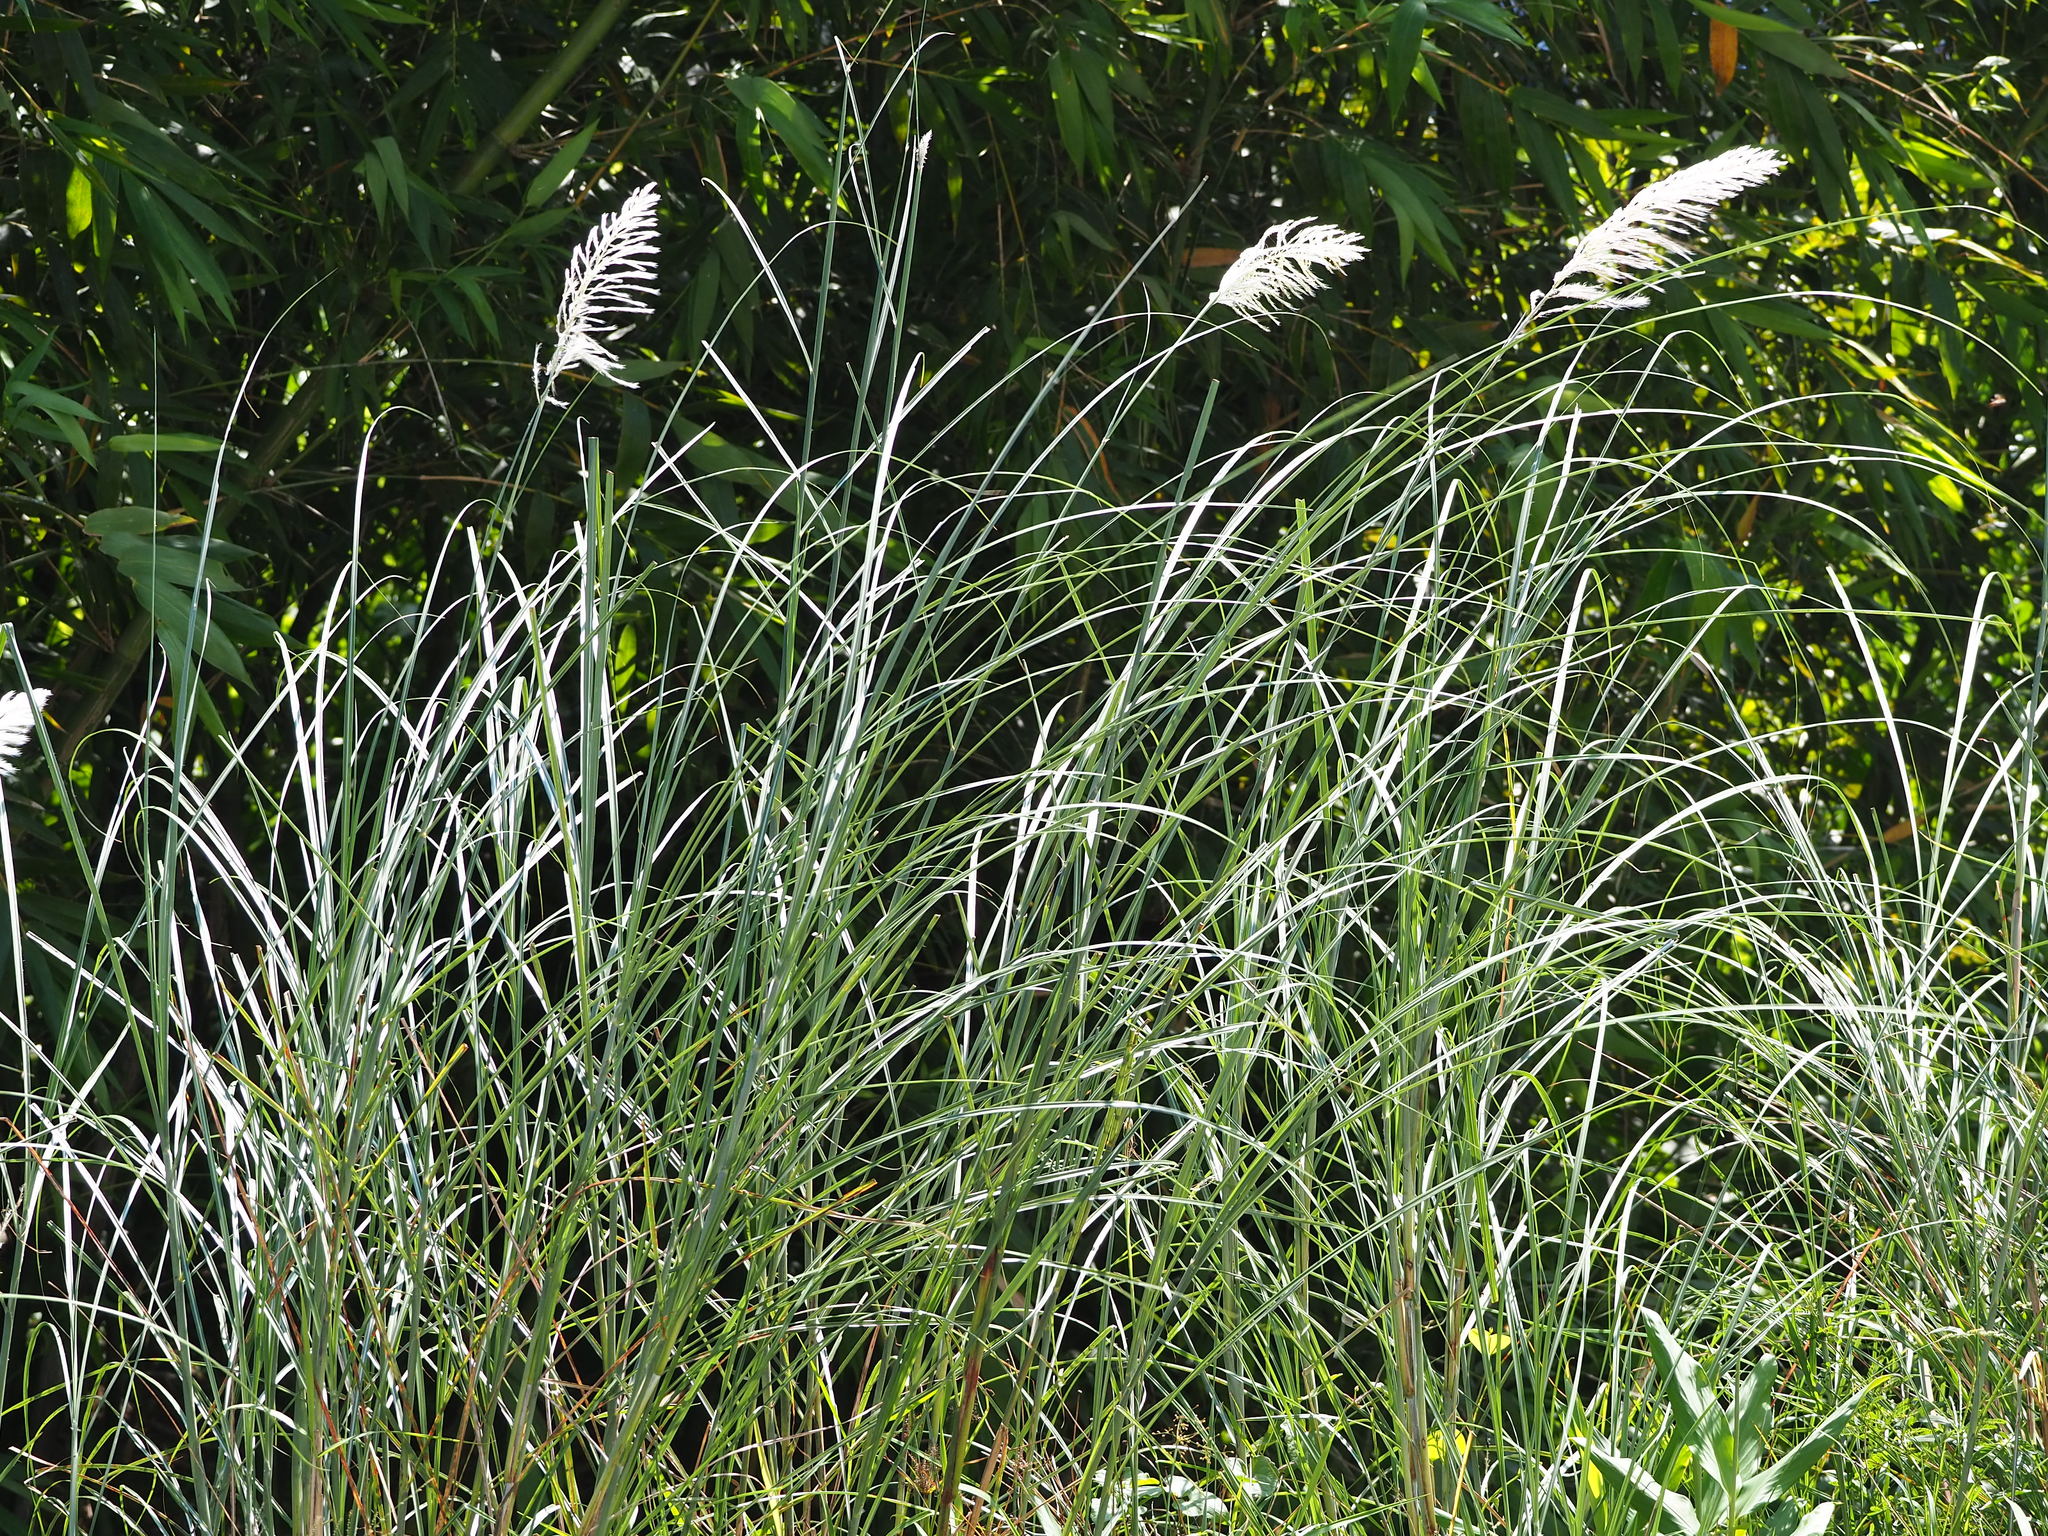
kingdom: Plantae
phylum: Tracheophyta
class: Liliopsida
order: Poales
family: Poaceae
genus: Saccharum
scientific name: Saccharum spontaneum
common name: Wild sugarcane
